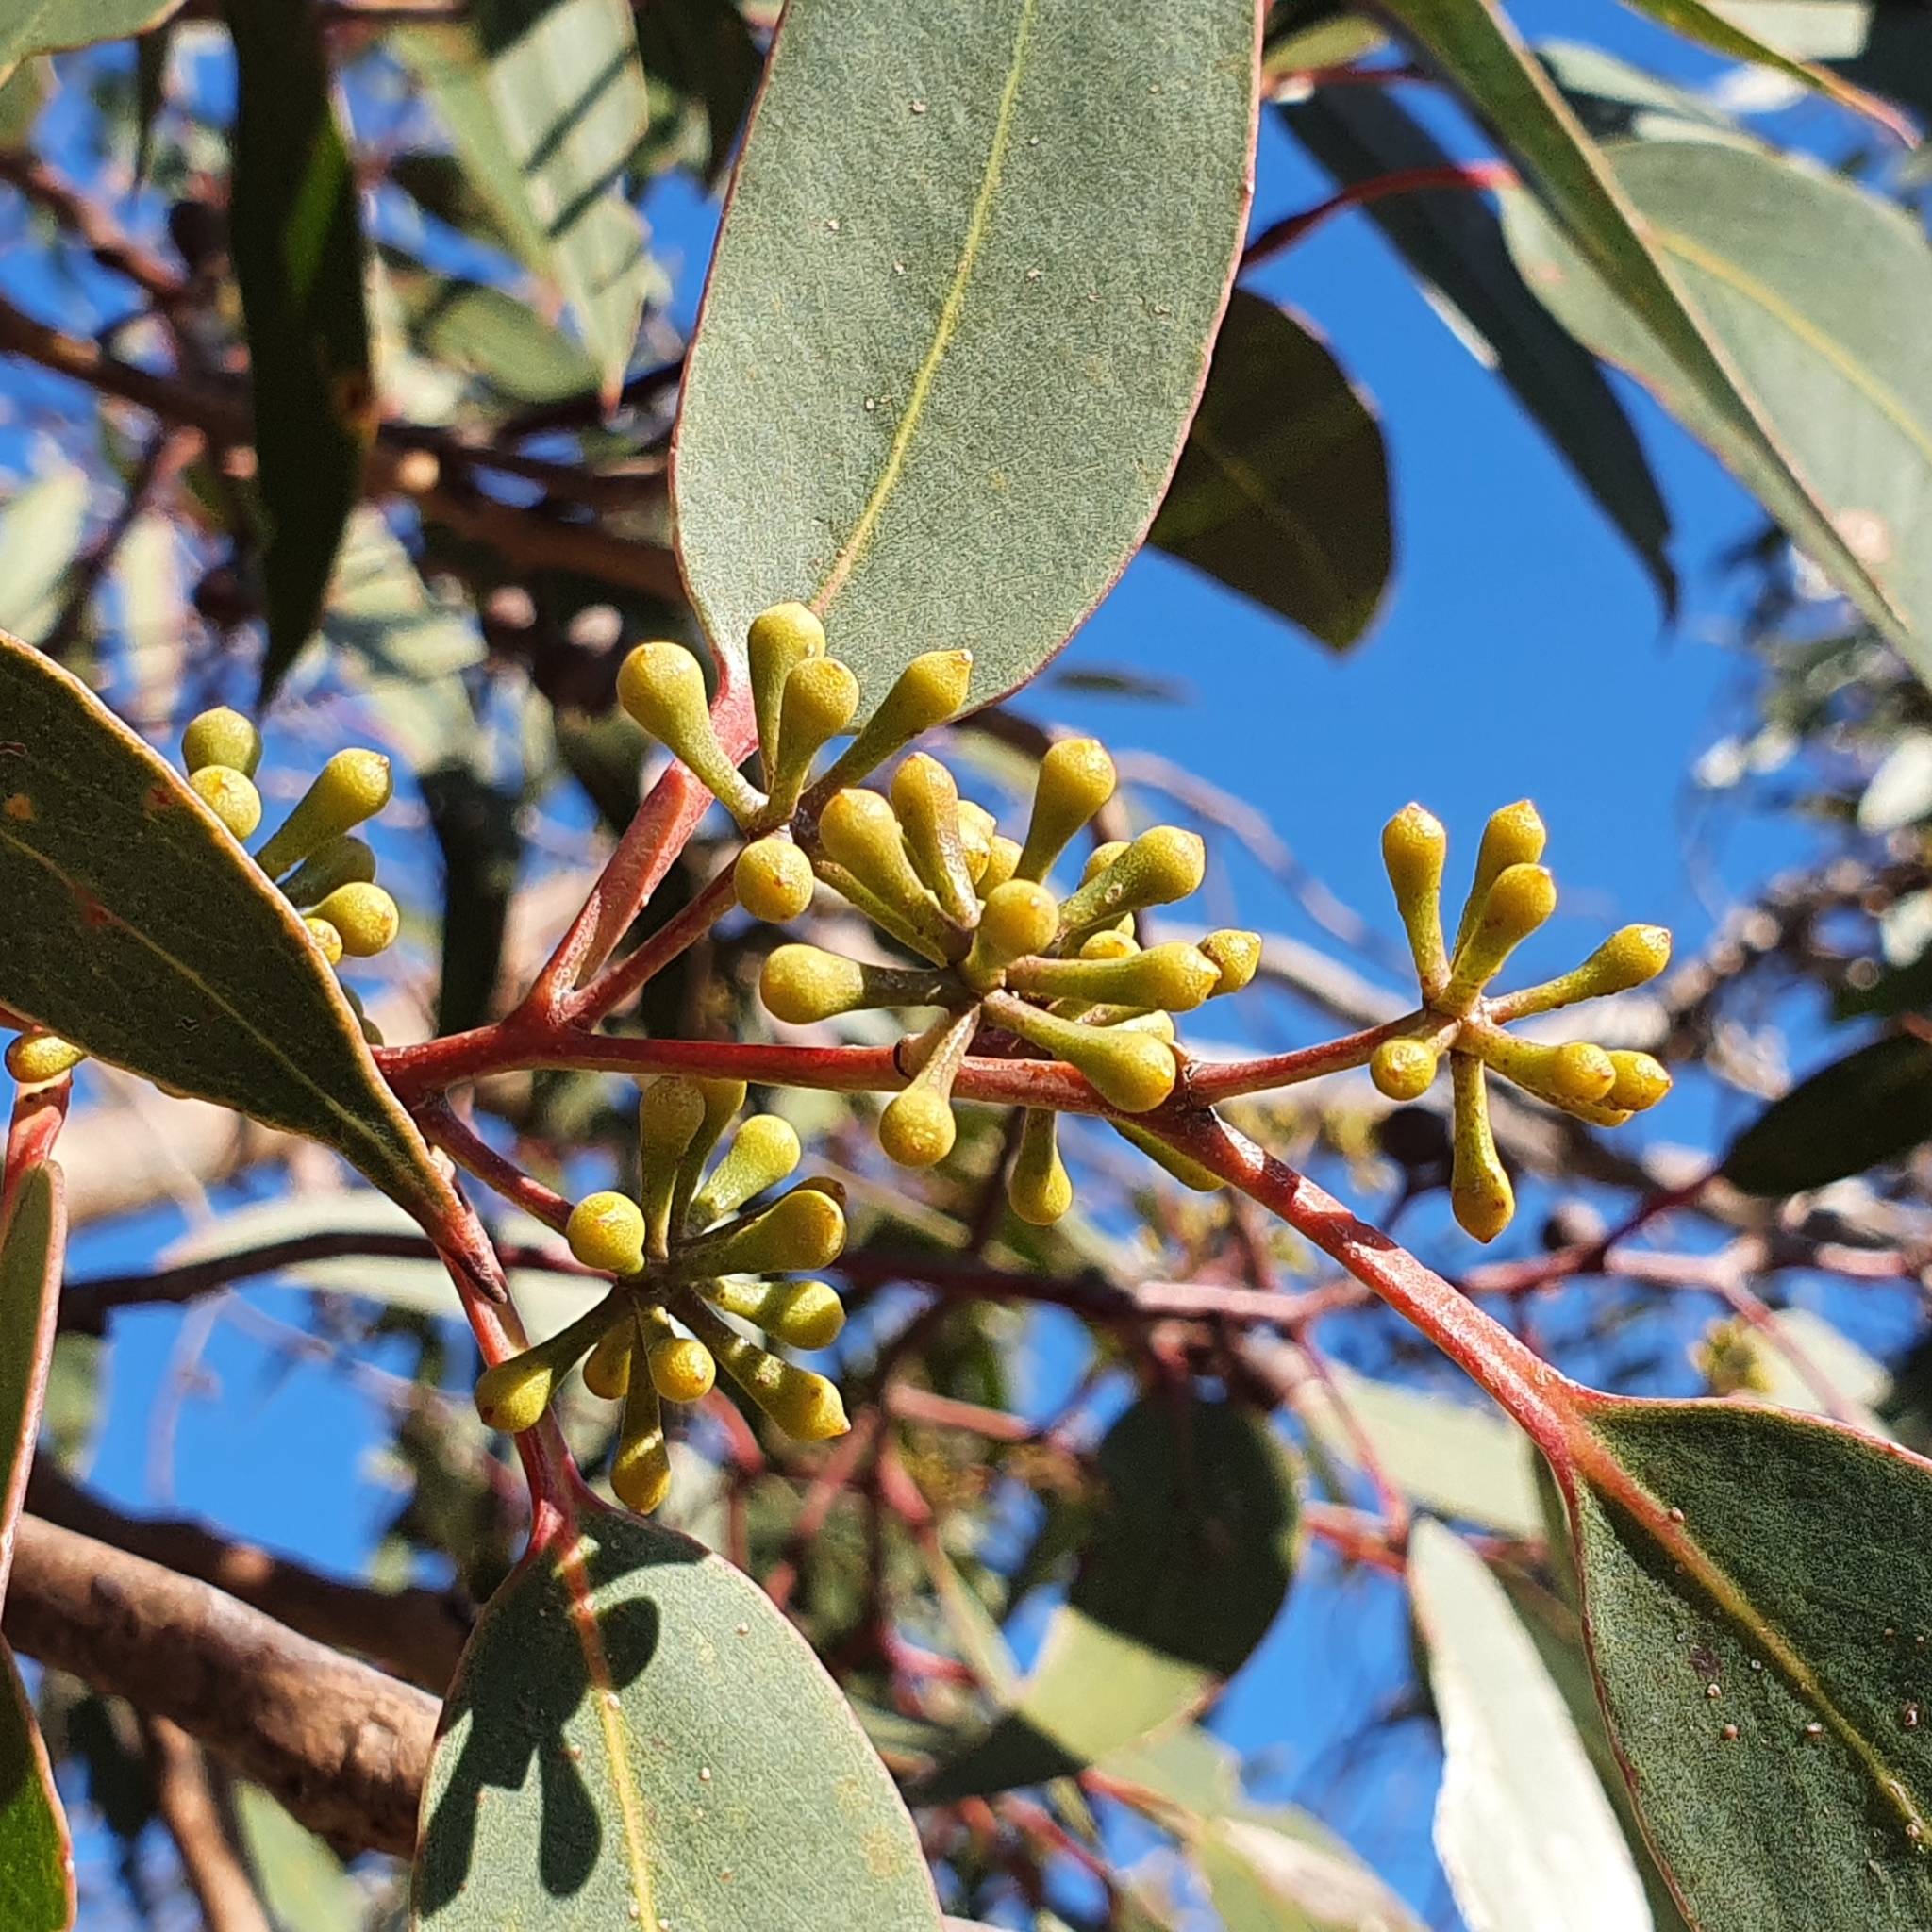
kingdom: Plantae
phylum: Tracheophyta
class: Magnoliopsida
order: Myrtales
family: Myrtaceae
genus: Eucalyptus
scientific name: Eucalyptus haemastoma
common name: Scribbly-gum
